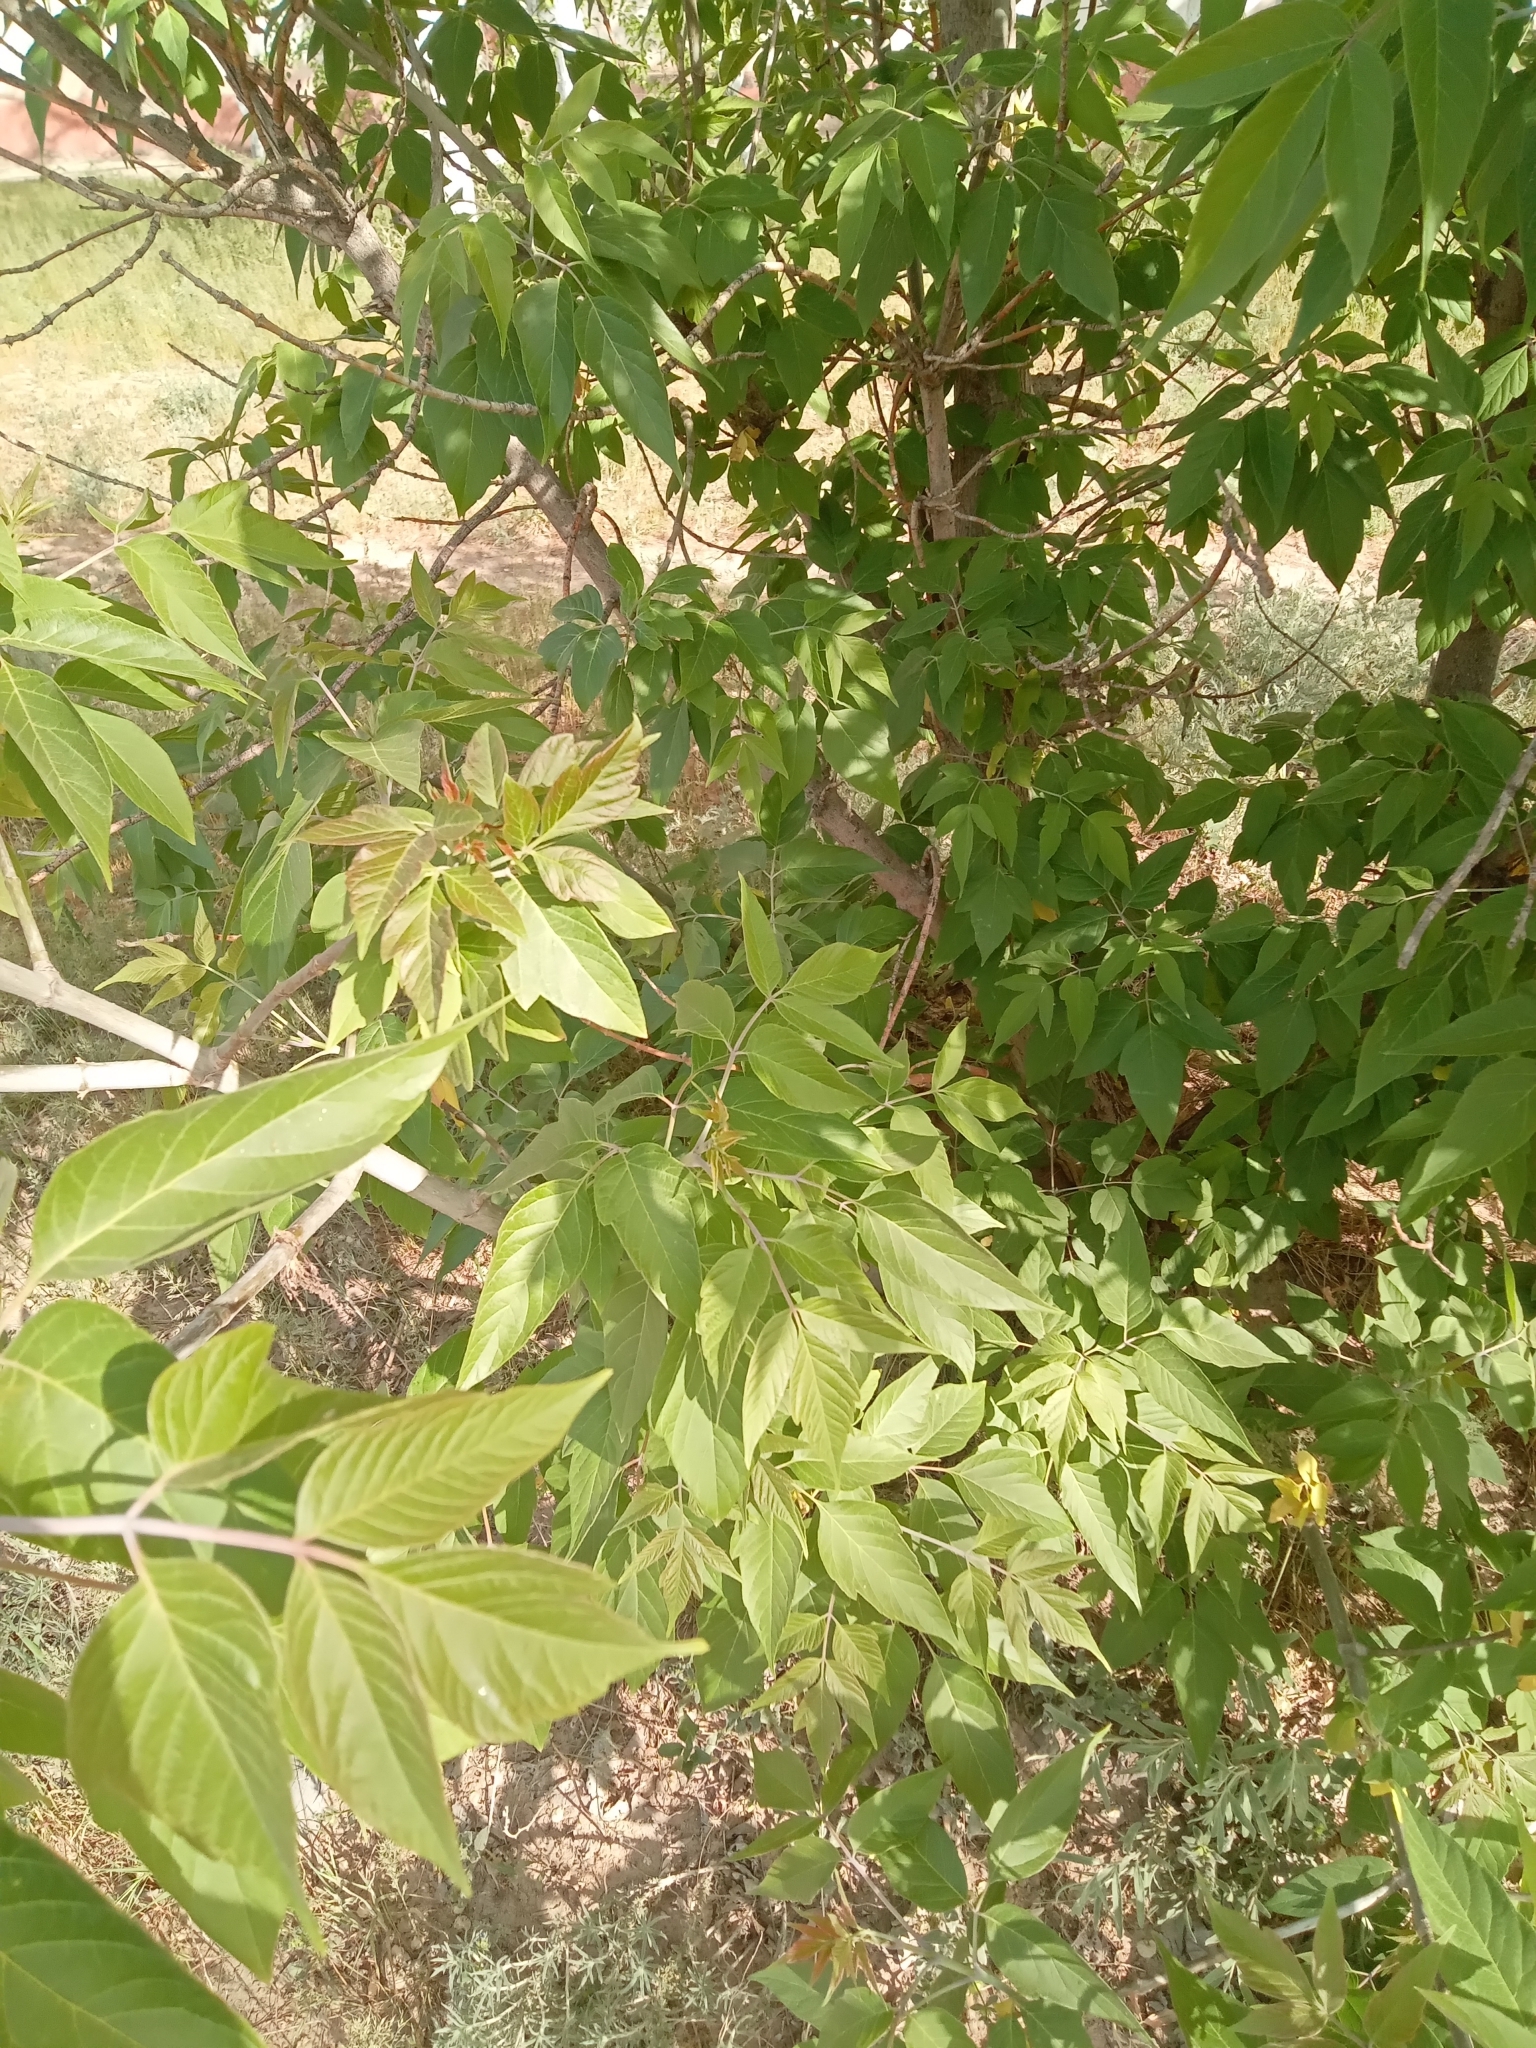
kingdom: Plantae
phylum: Tracheophyta
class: Magnoliopsida
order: Sapindales
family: Sapindaceae
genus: Acer
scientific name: Acer negundo
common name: Ashleaf maple
